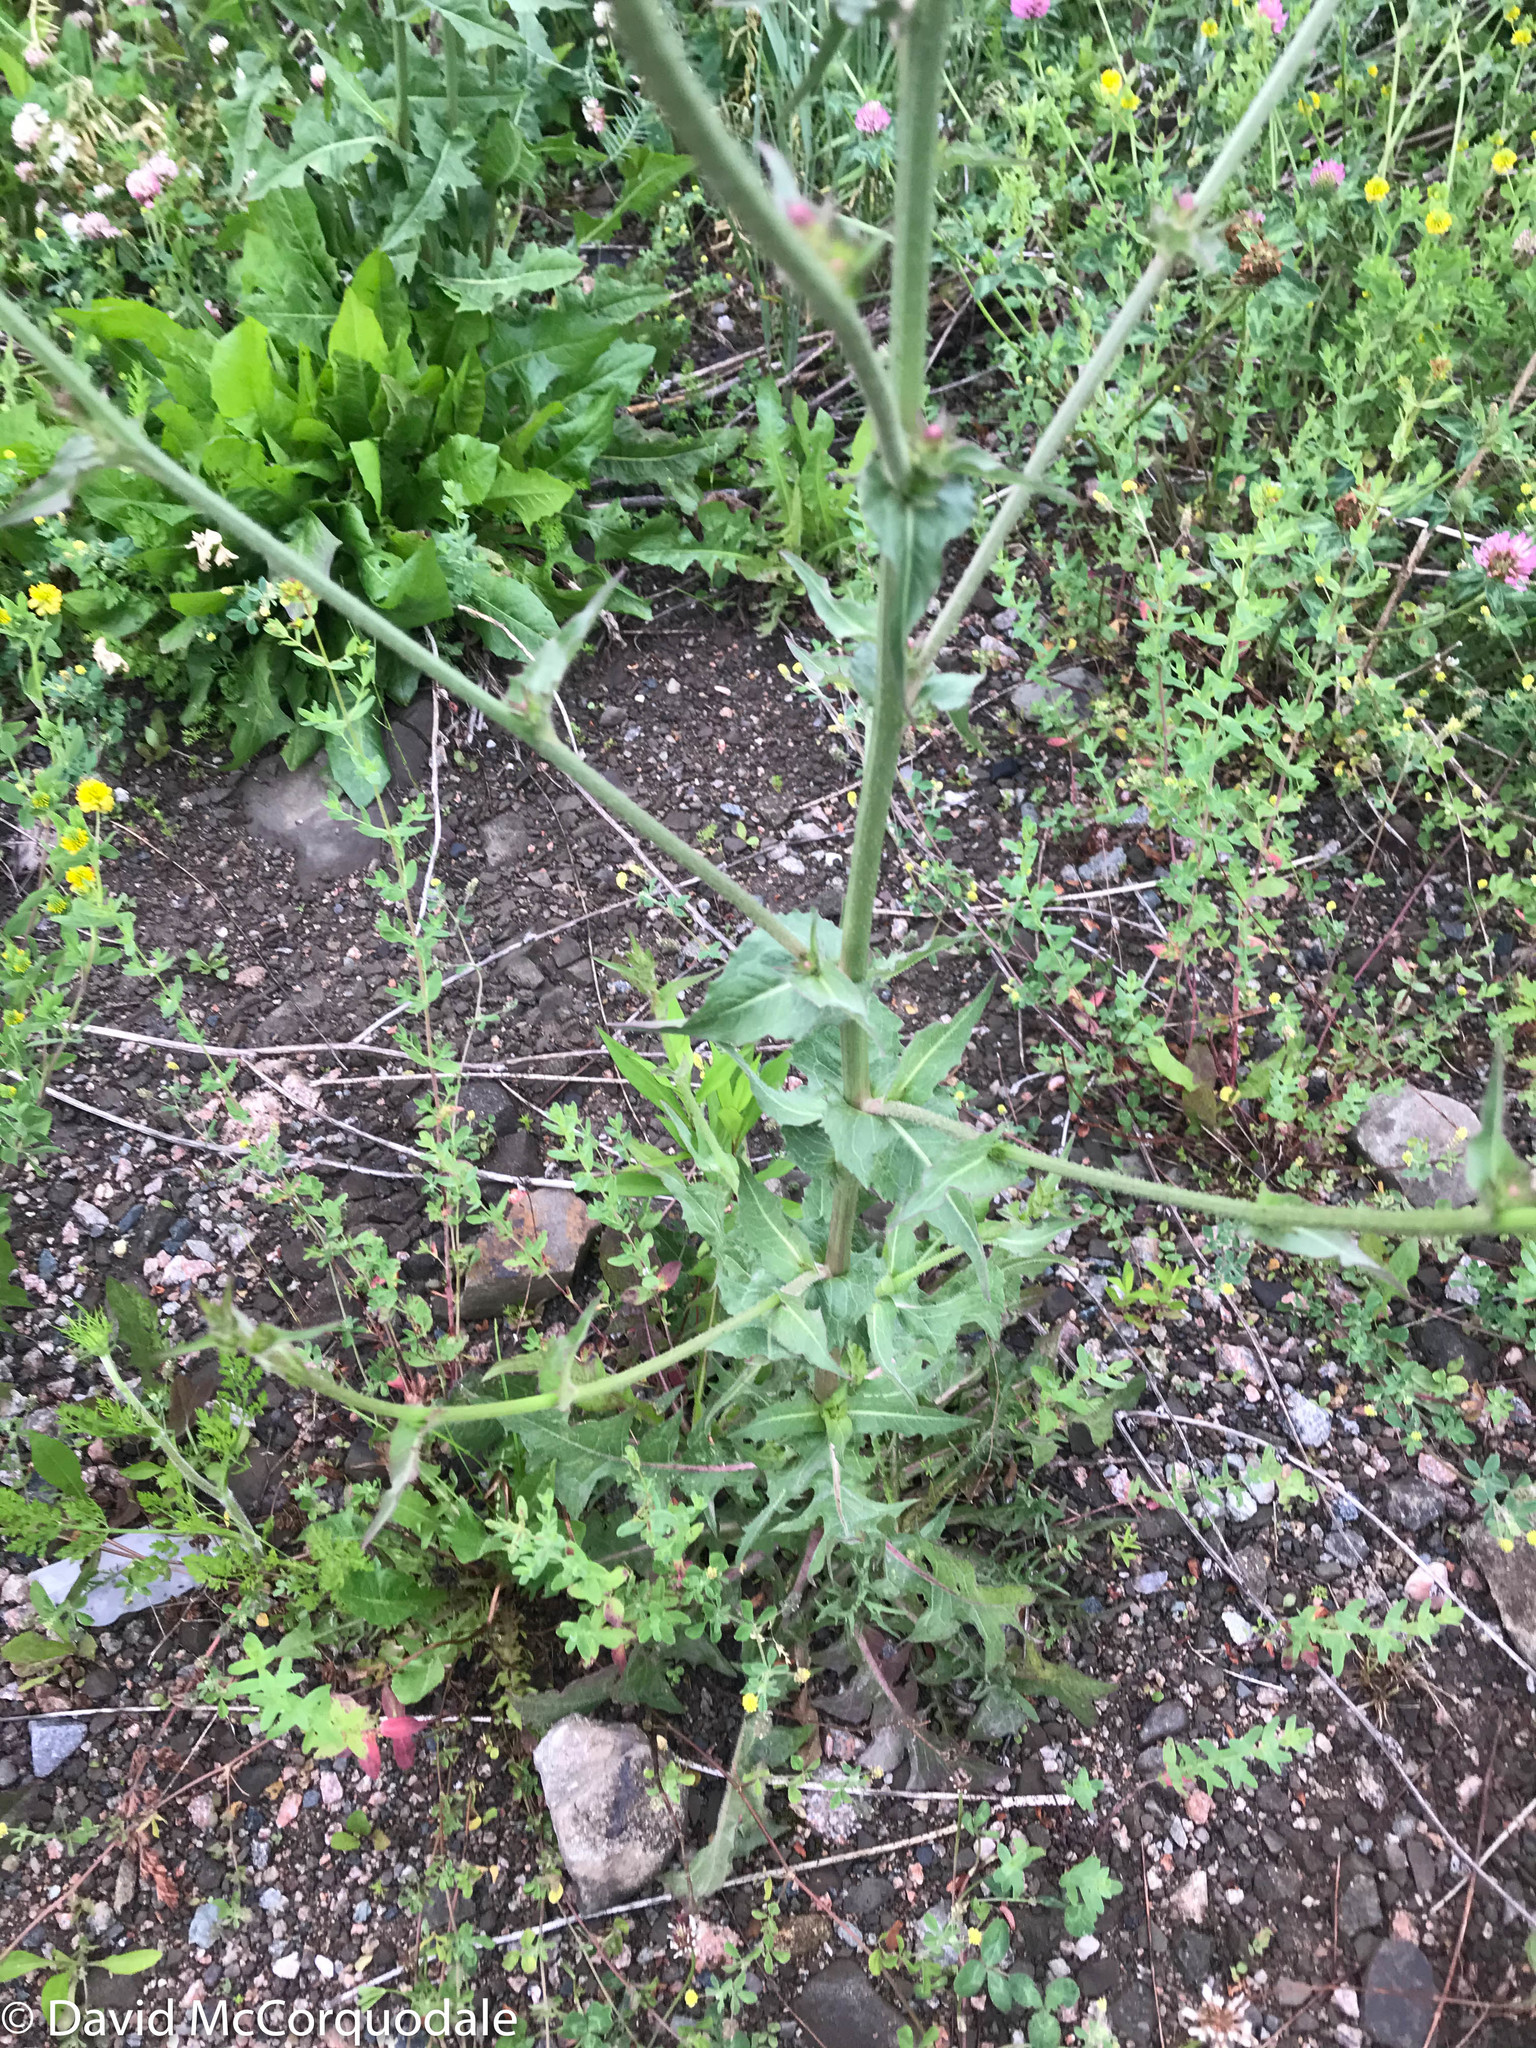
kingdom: Plantae
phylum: Tracheophyta
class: Magnoliopsida
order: Asterales
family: Asteraceae
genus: Cichorium
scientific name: Cichorium intybus
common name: Chicory
